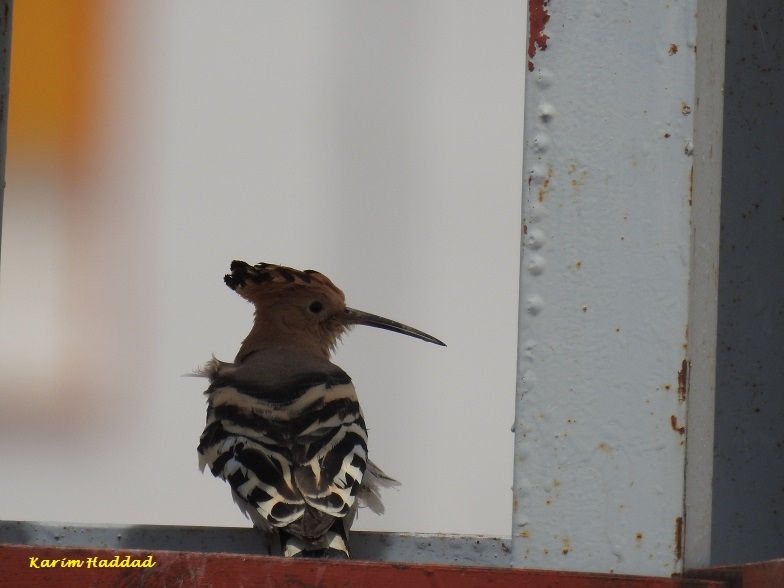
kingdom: Animalia
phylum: Chordata
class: Aves
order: Bucerotiformes
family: Upupidae
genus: Upupa
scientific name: Upupa epops
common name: Eurasian hoopoe
